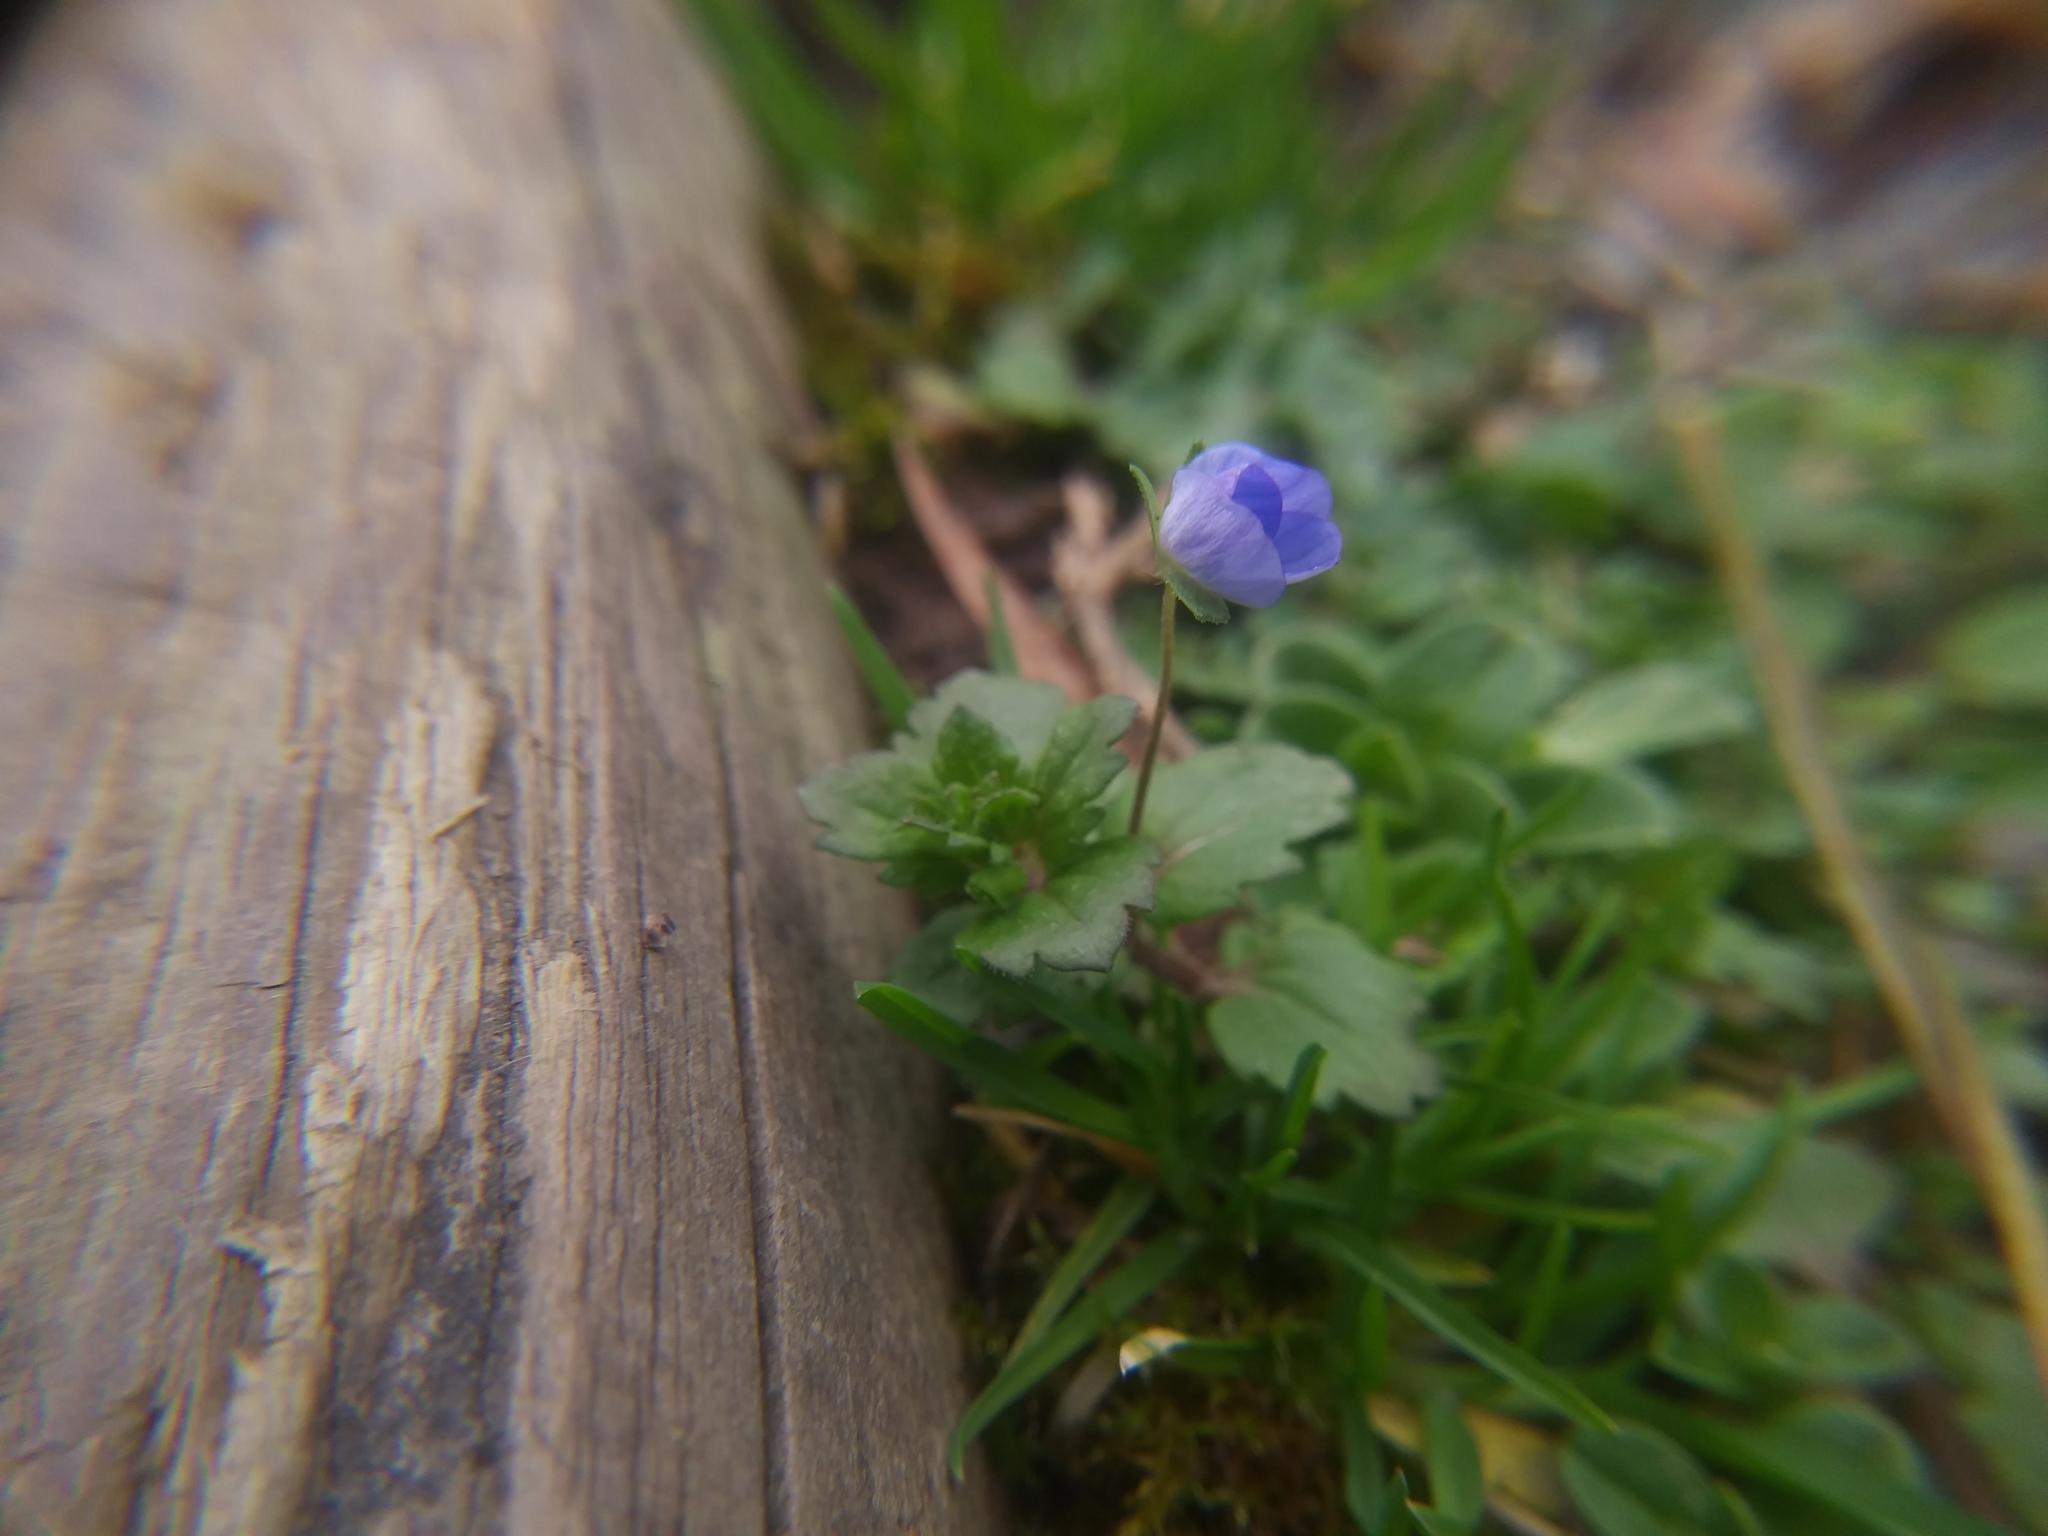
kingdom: Plantae
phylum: Tracheophyta
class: Magnoliopsida
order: Lamiales
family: Plantaginaceae
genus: Veronica
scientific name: Veronica persica
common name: Common field-speedwell
